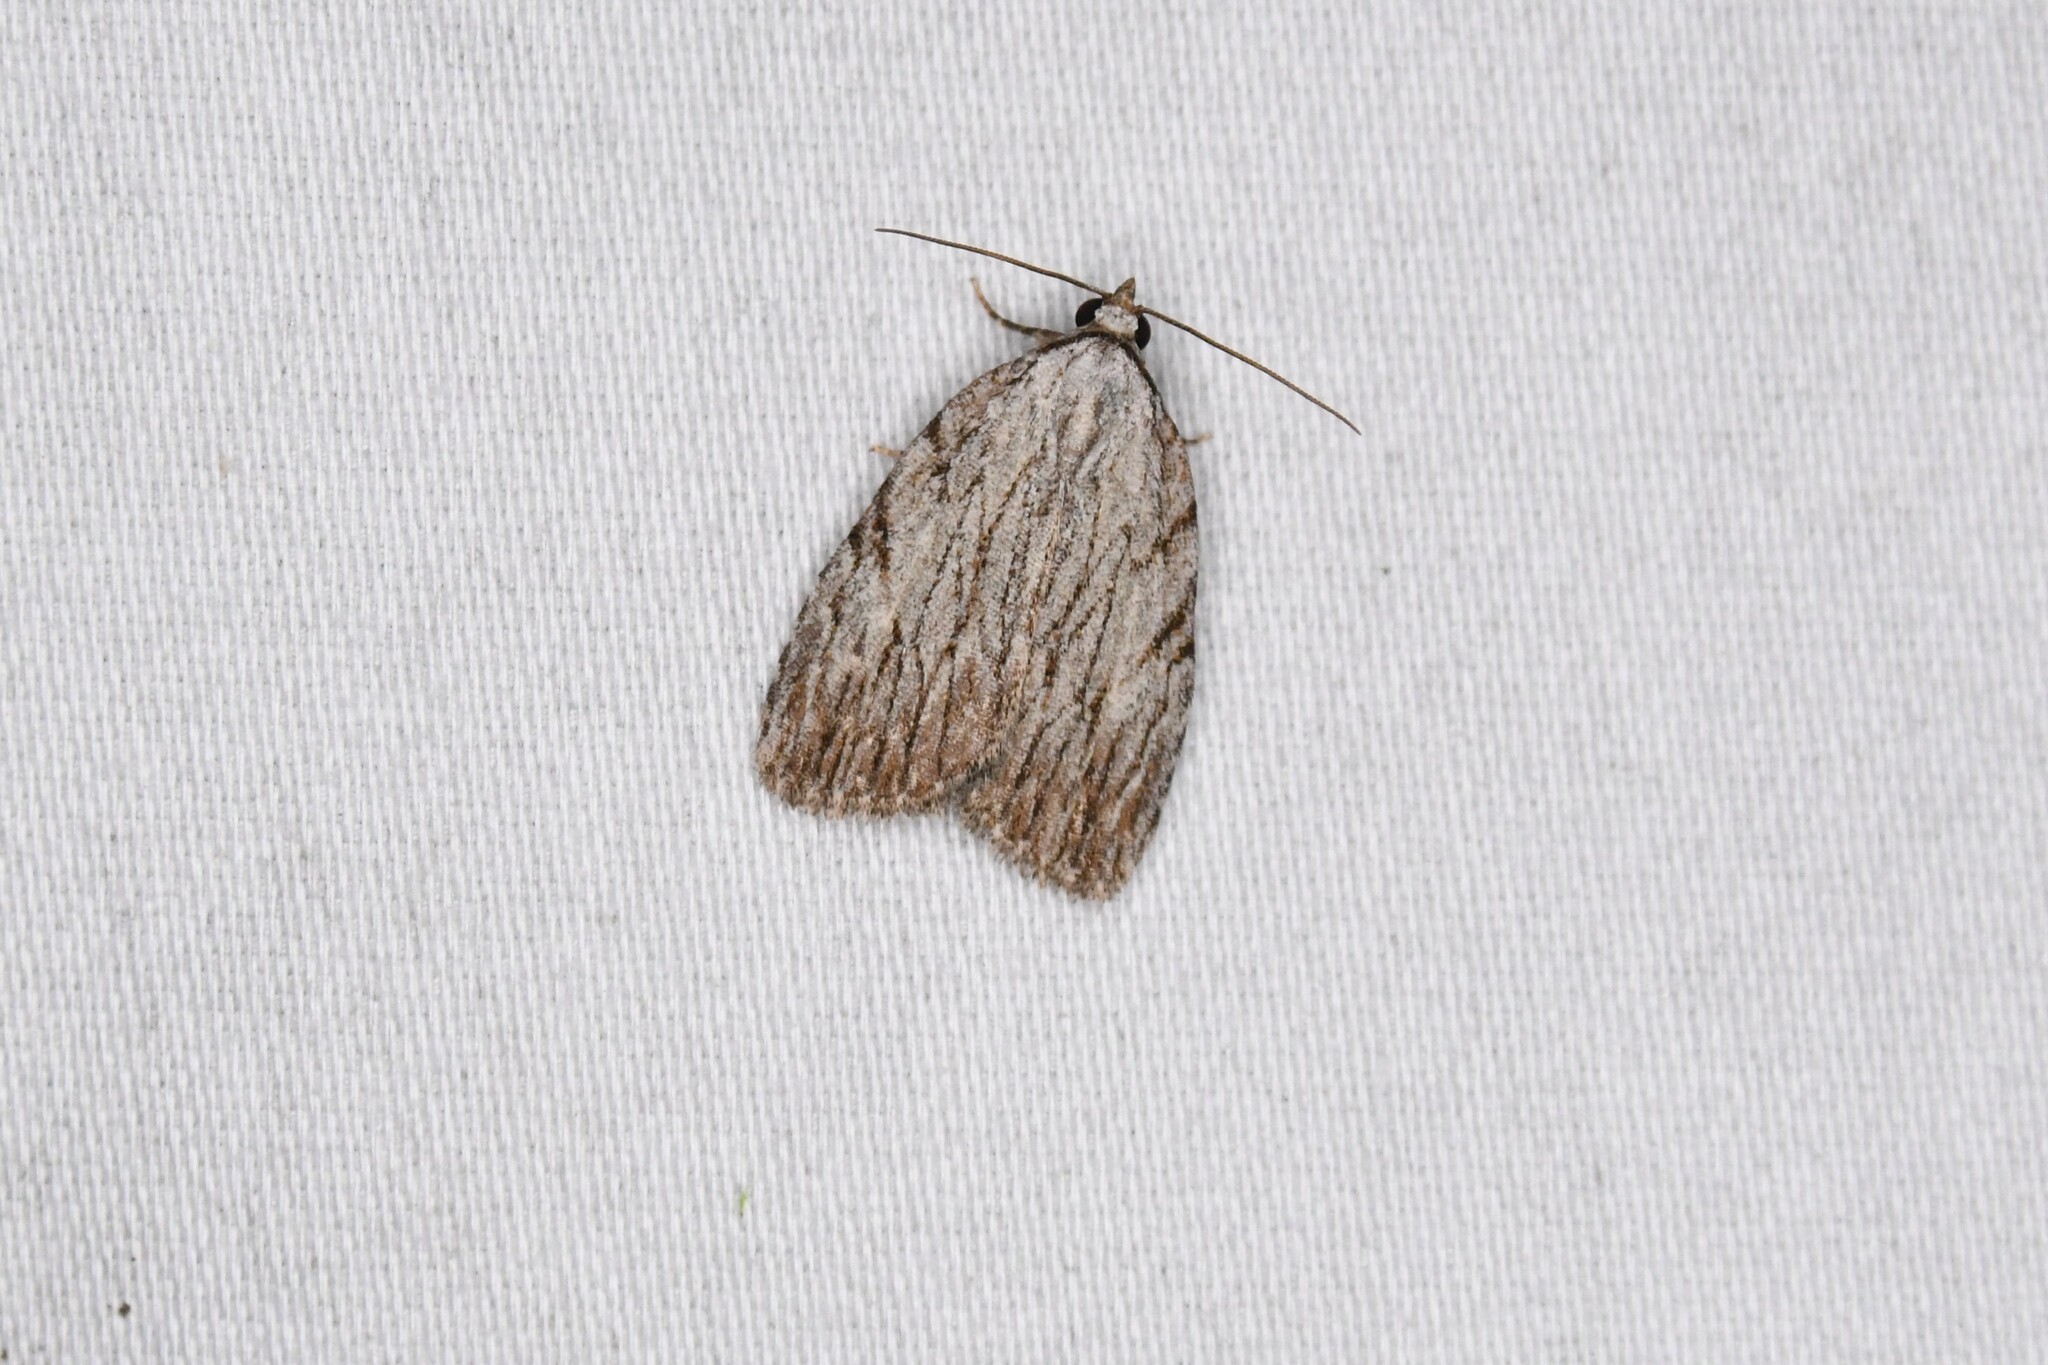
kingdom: Animalia
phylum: Arthropoda
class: Insecta
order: Lepidoptera
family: Noctuidae
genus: Balsa
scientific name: Balsa tristrigella
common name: Three-lined balsa moth
